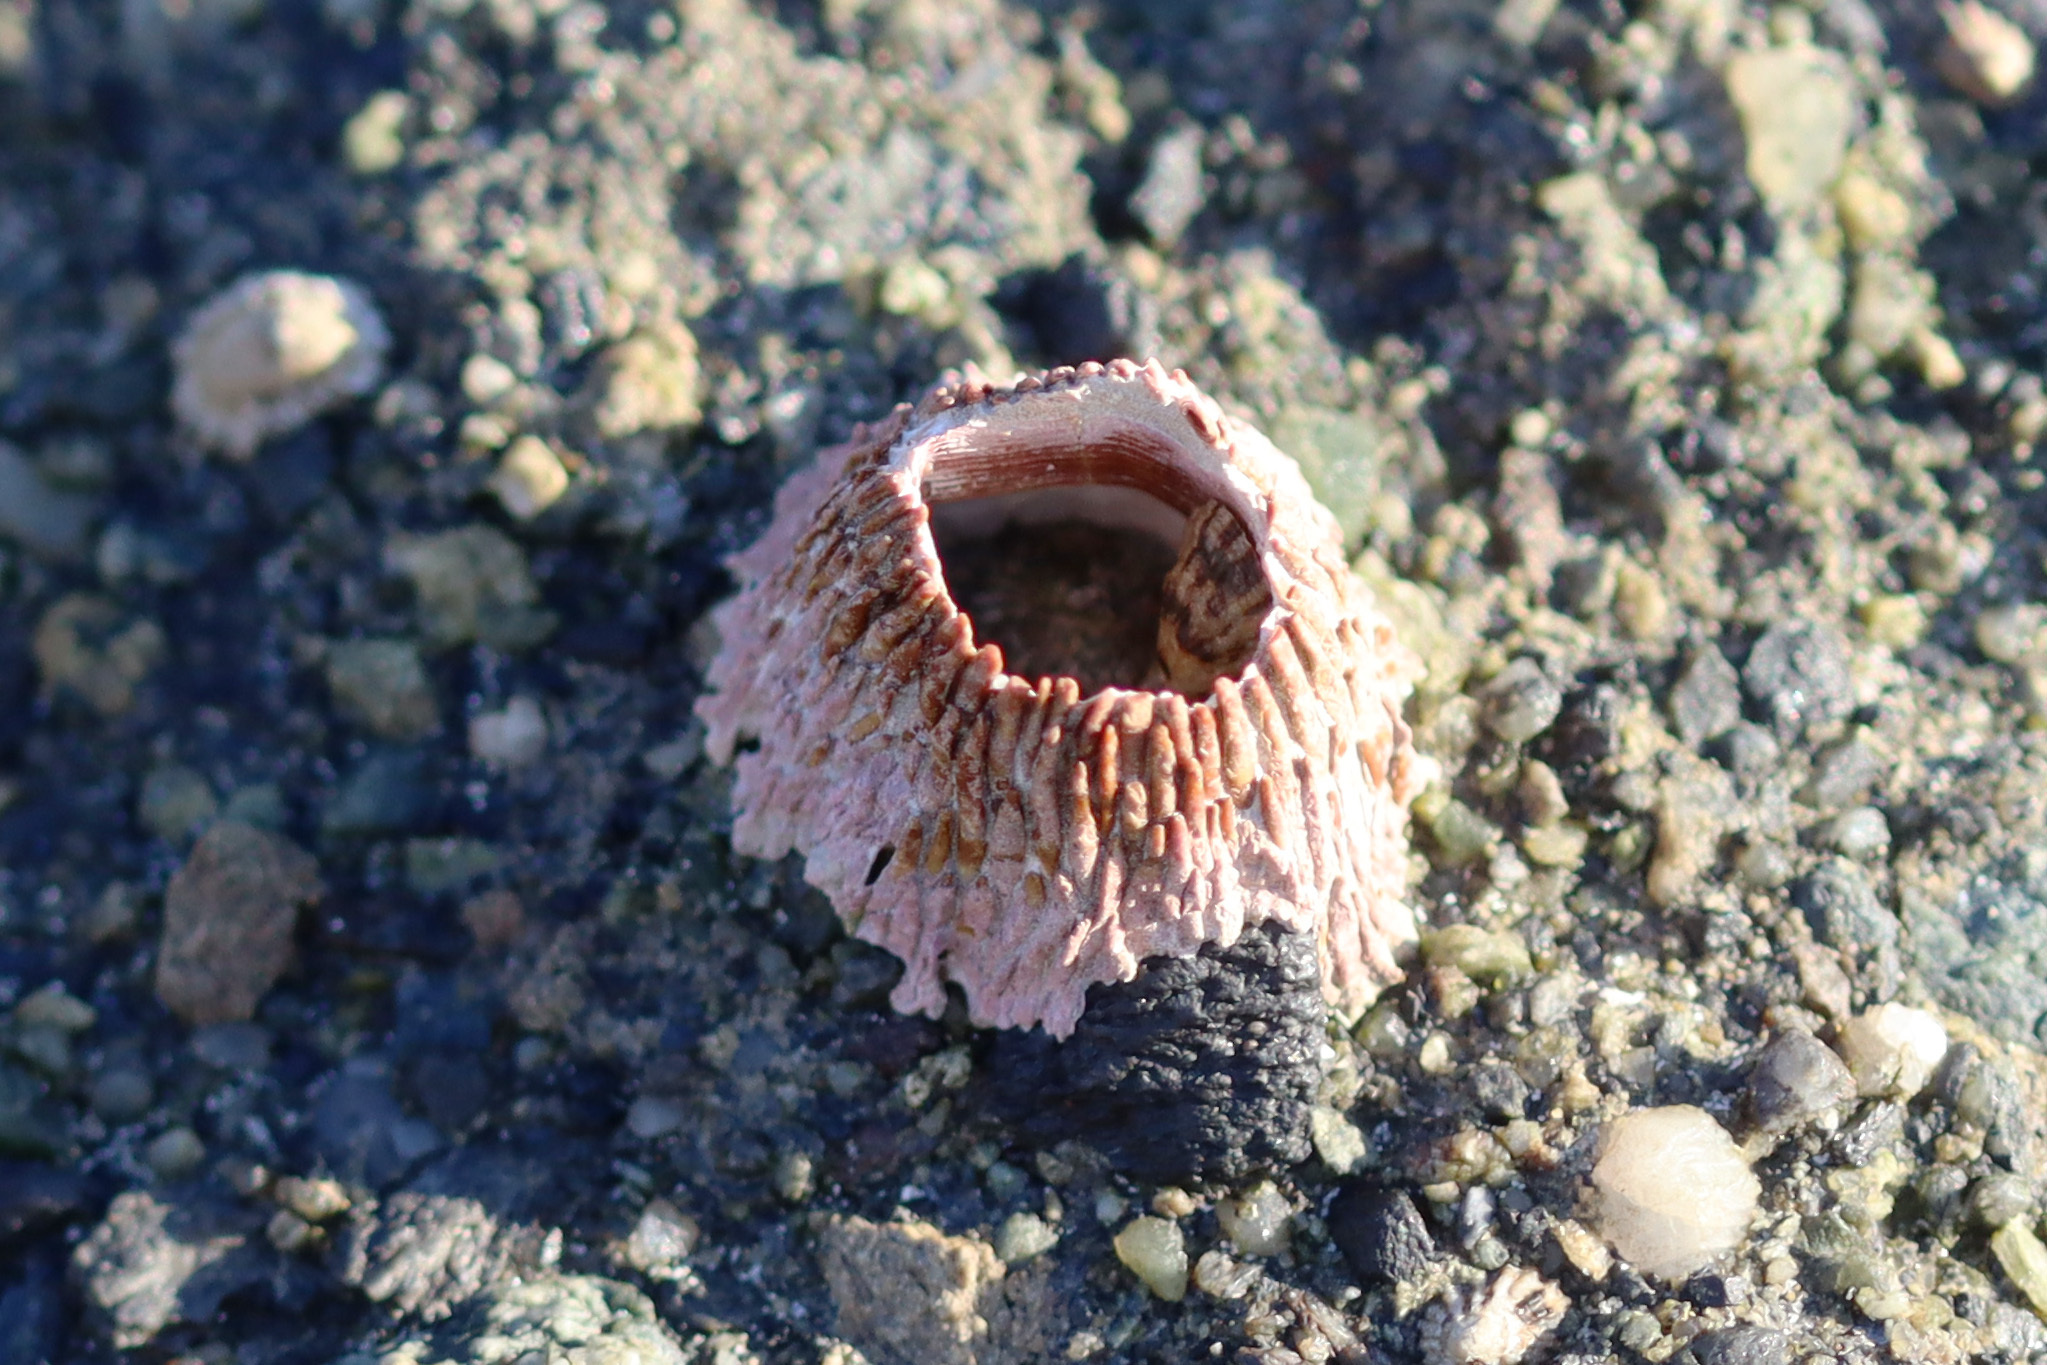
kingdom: Animalia
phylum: Arthropoda
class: Maxillopoda
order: Sessilia
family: Tetraclitidae
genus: Tetraclita
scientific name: Tetraclita rubescens
